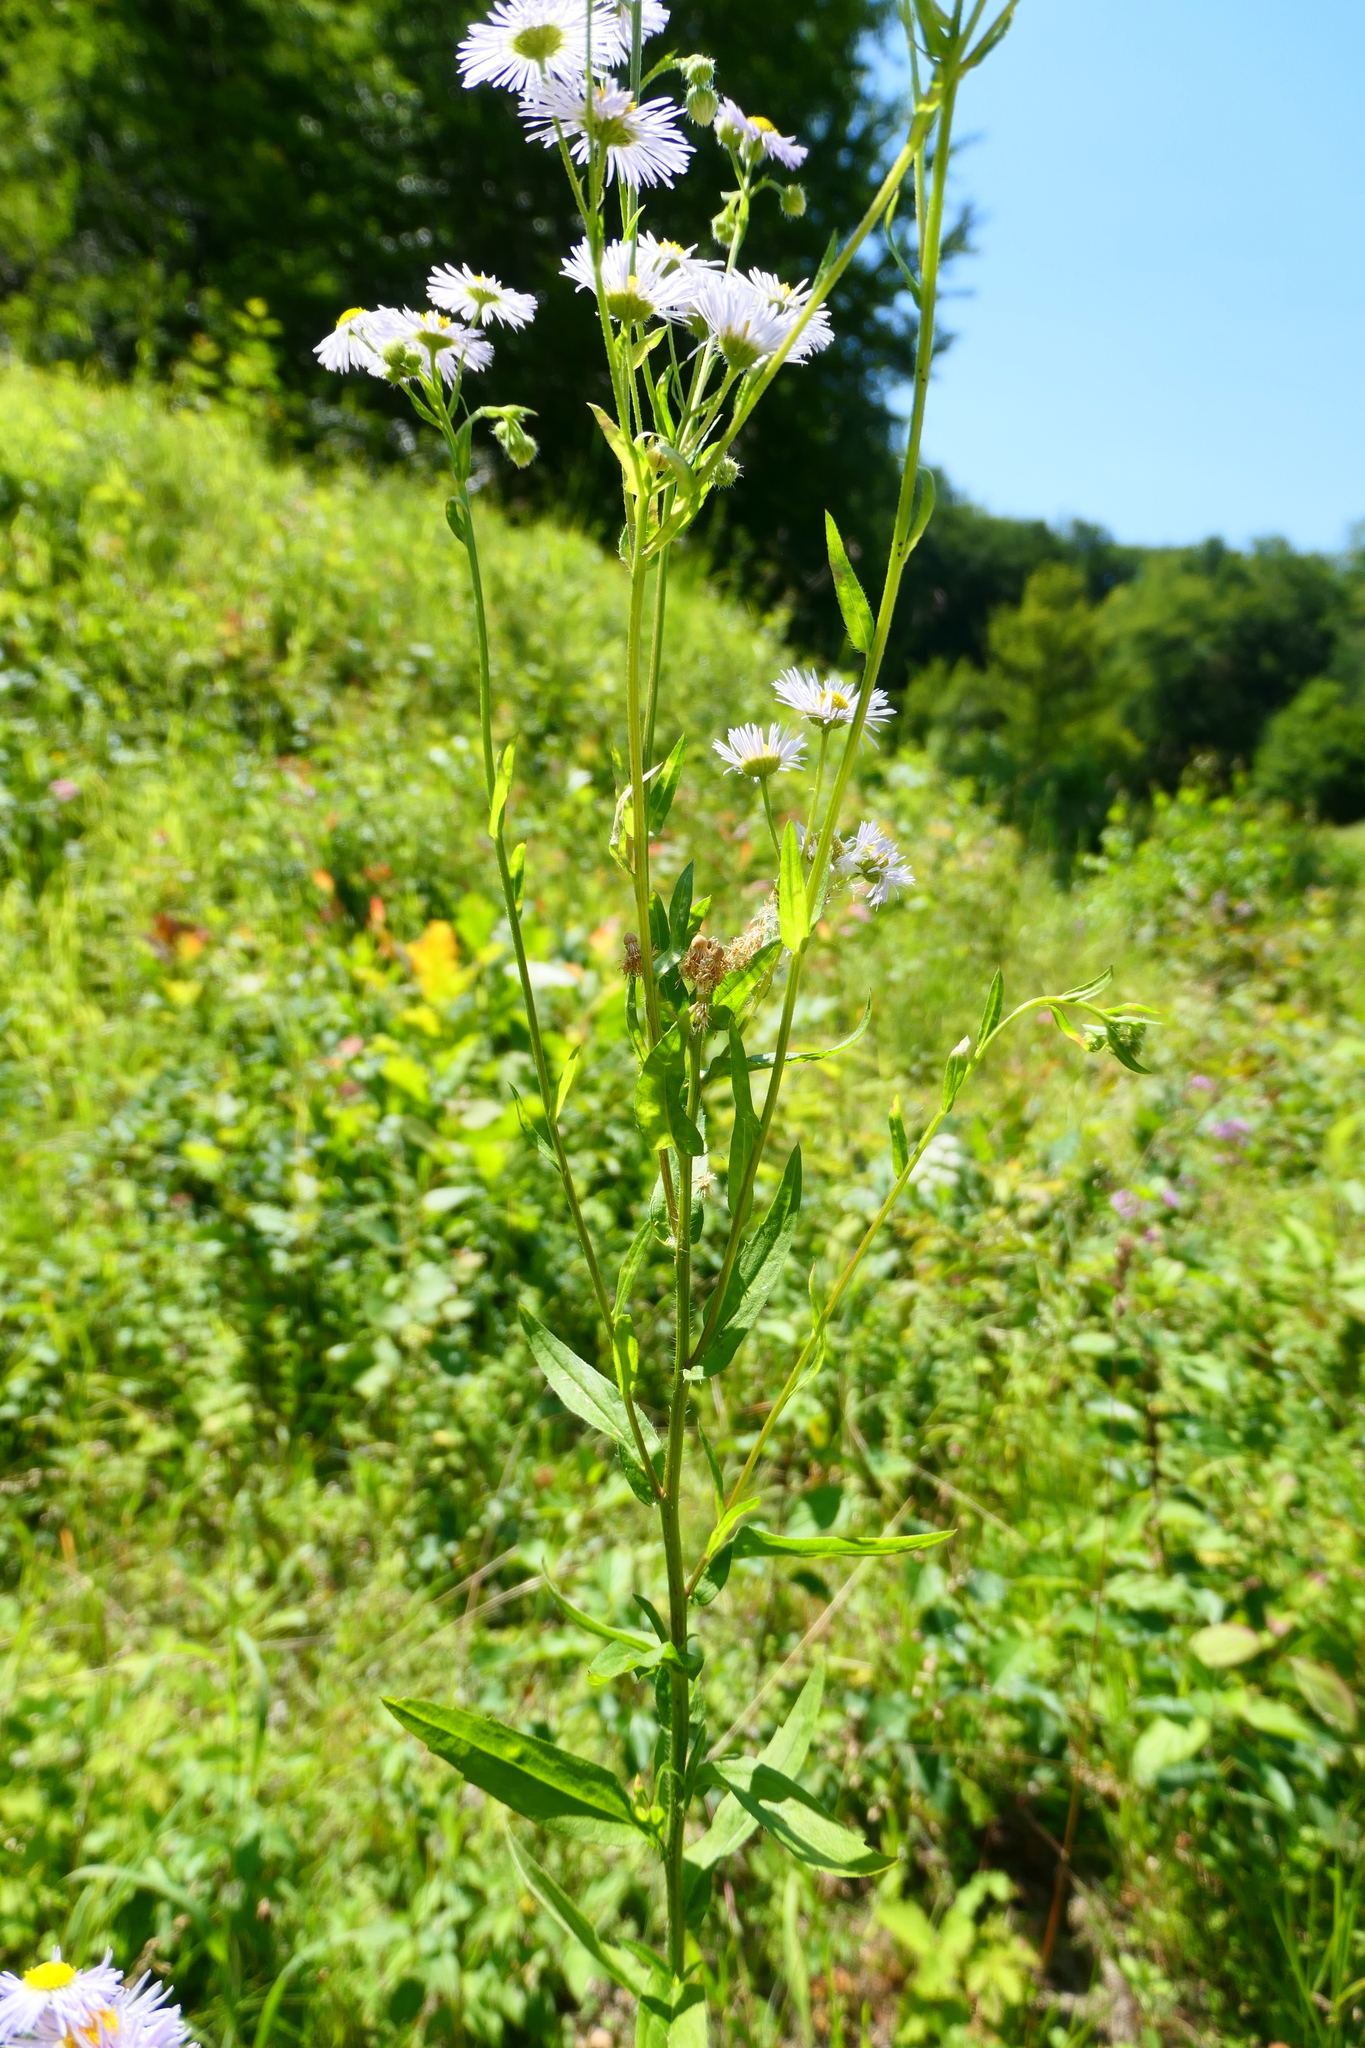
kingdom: Plantae
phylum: Tracheophyta
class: Magnoliopsida
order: Asterales
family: Asteraceae
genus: Erigeron
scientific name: Erigeron annuus
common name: Tall fleabane
